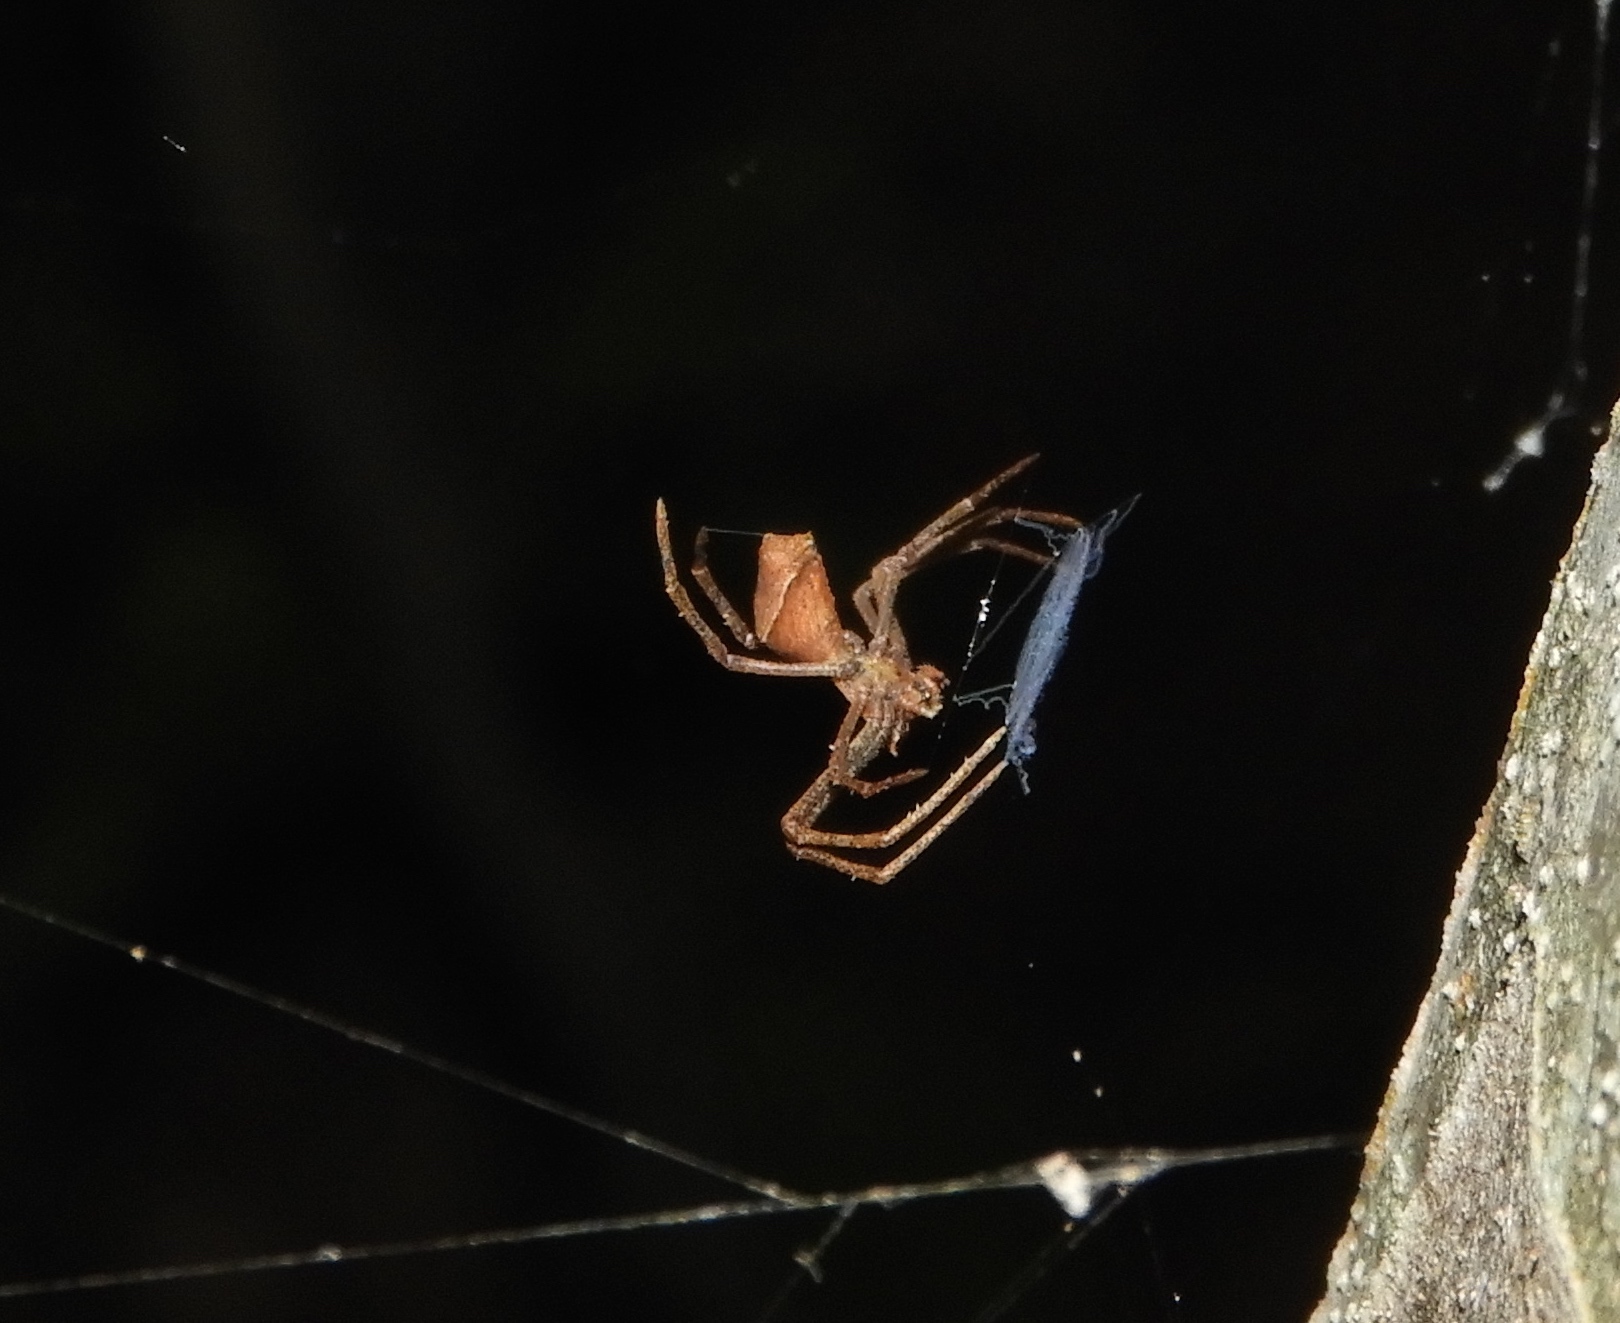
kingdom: Animalia
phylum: Arthropoda
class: Arachnida
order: Araneae
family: Deinopidae
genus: Deinopis
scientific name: Deinopis aurita
